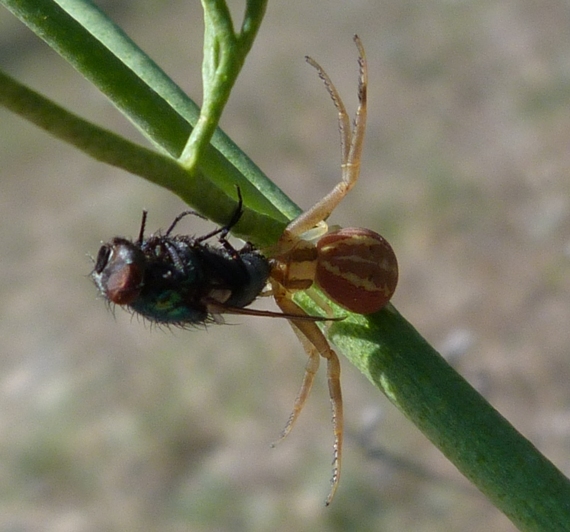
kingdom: Animalia
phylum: Arthropoda
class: Arachnida
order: Araneae
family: Thomisidae
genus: Runcinia
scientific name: Runcinia grammica
